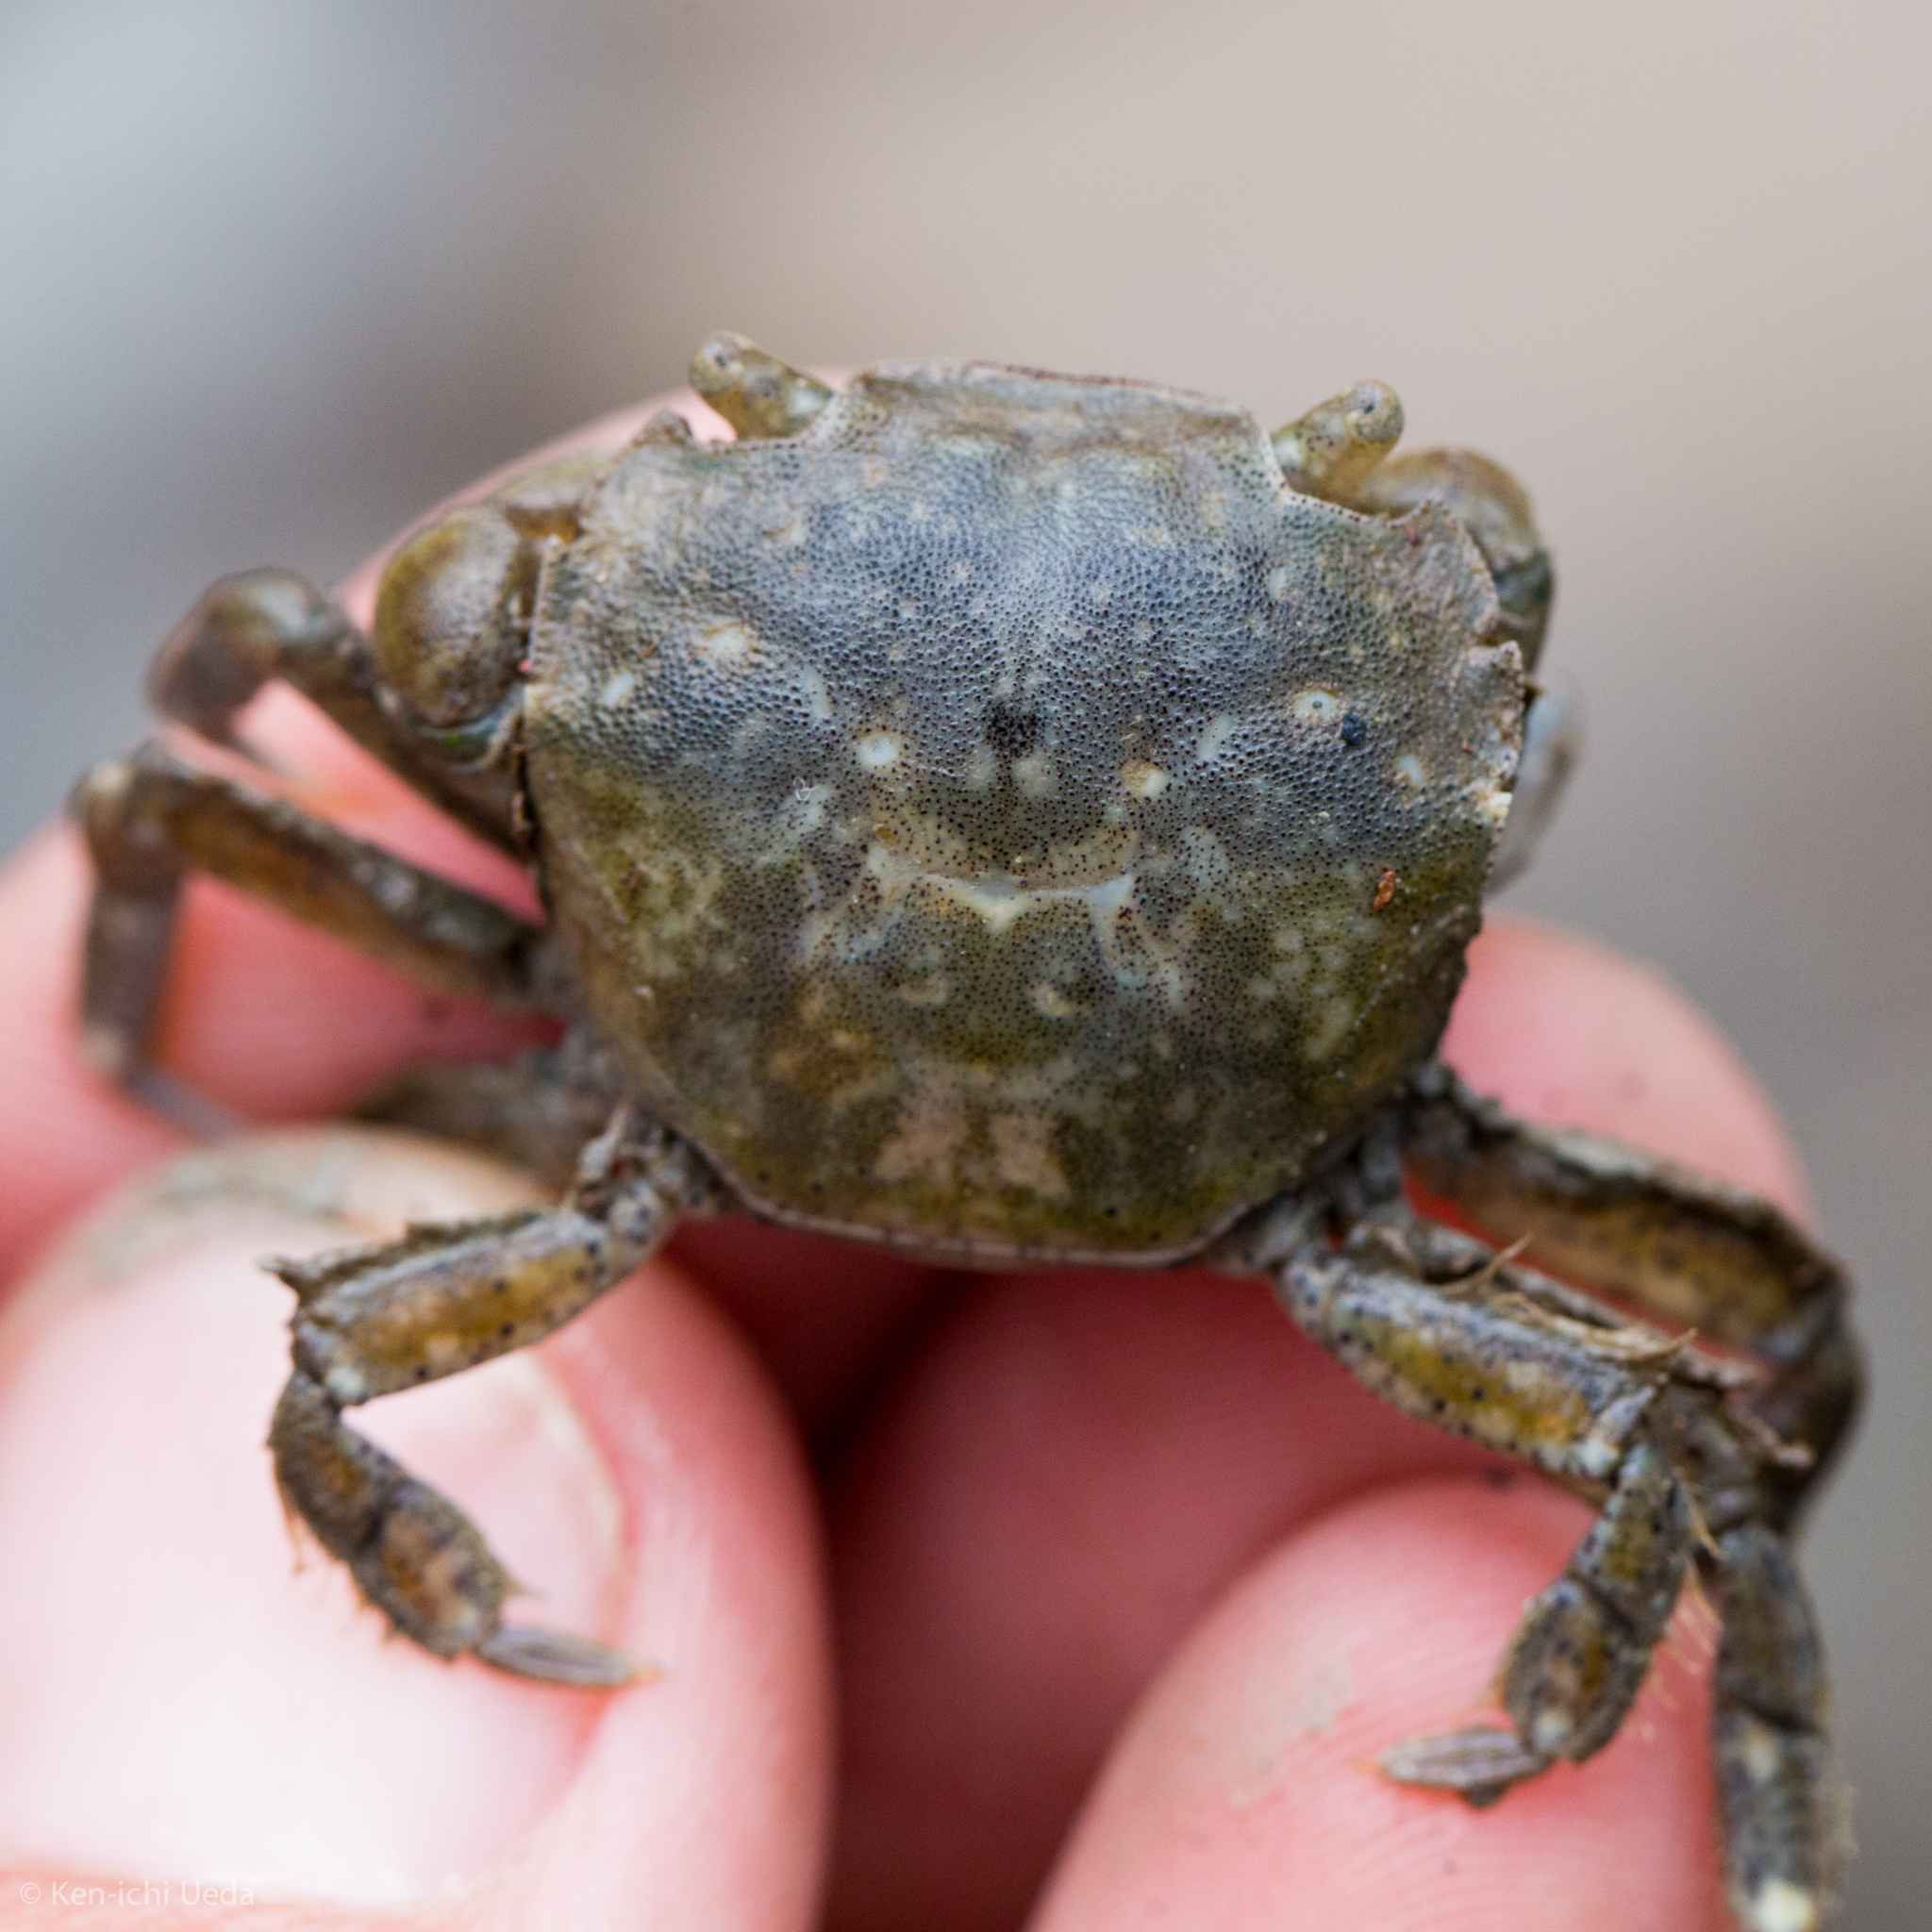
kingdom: Animalia
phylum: Arthropoda
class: Malacostraca
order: Decapoda
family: Varunidae
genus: Hemigrapsus
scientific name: Hemigrapsus crenulatus
